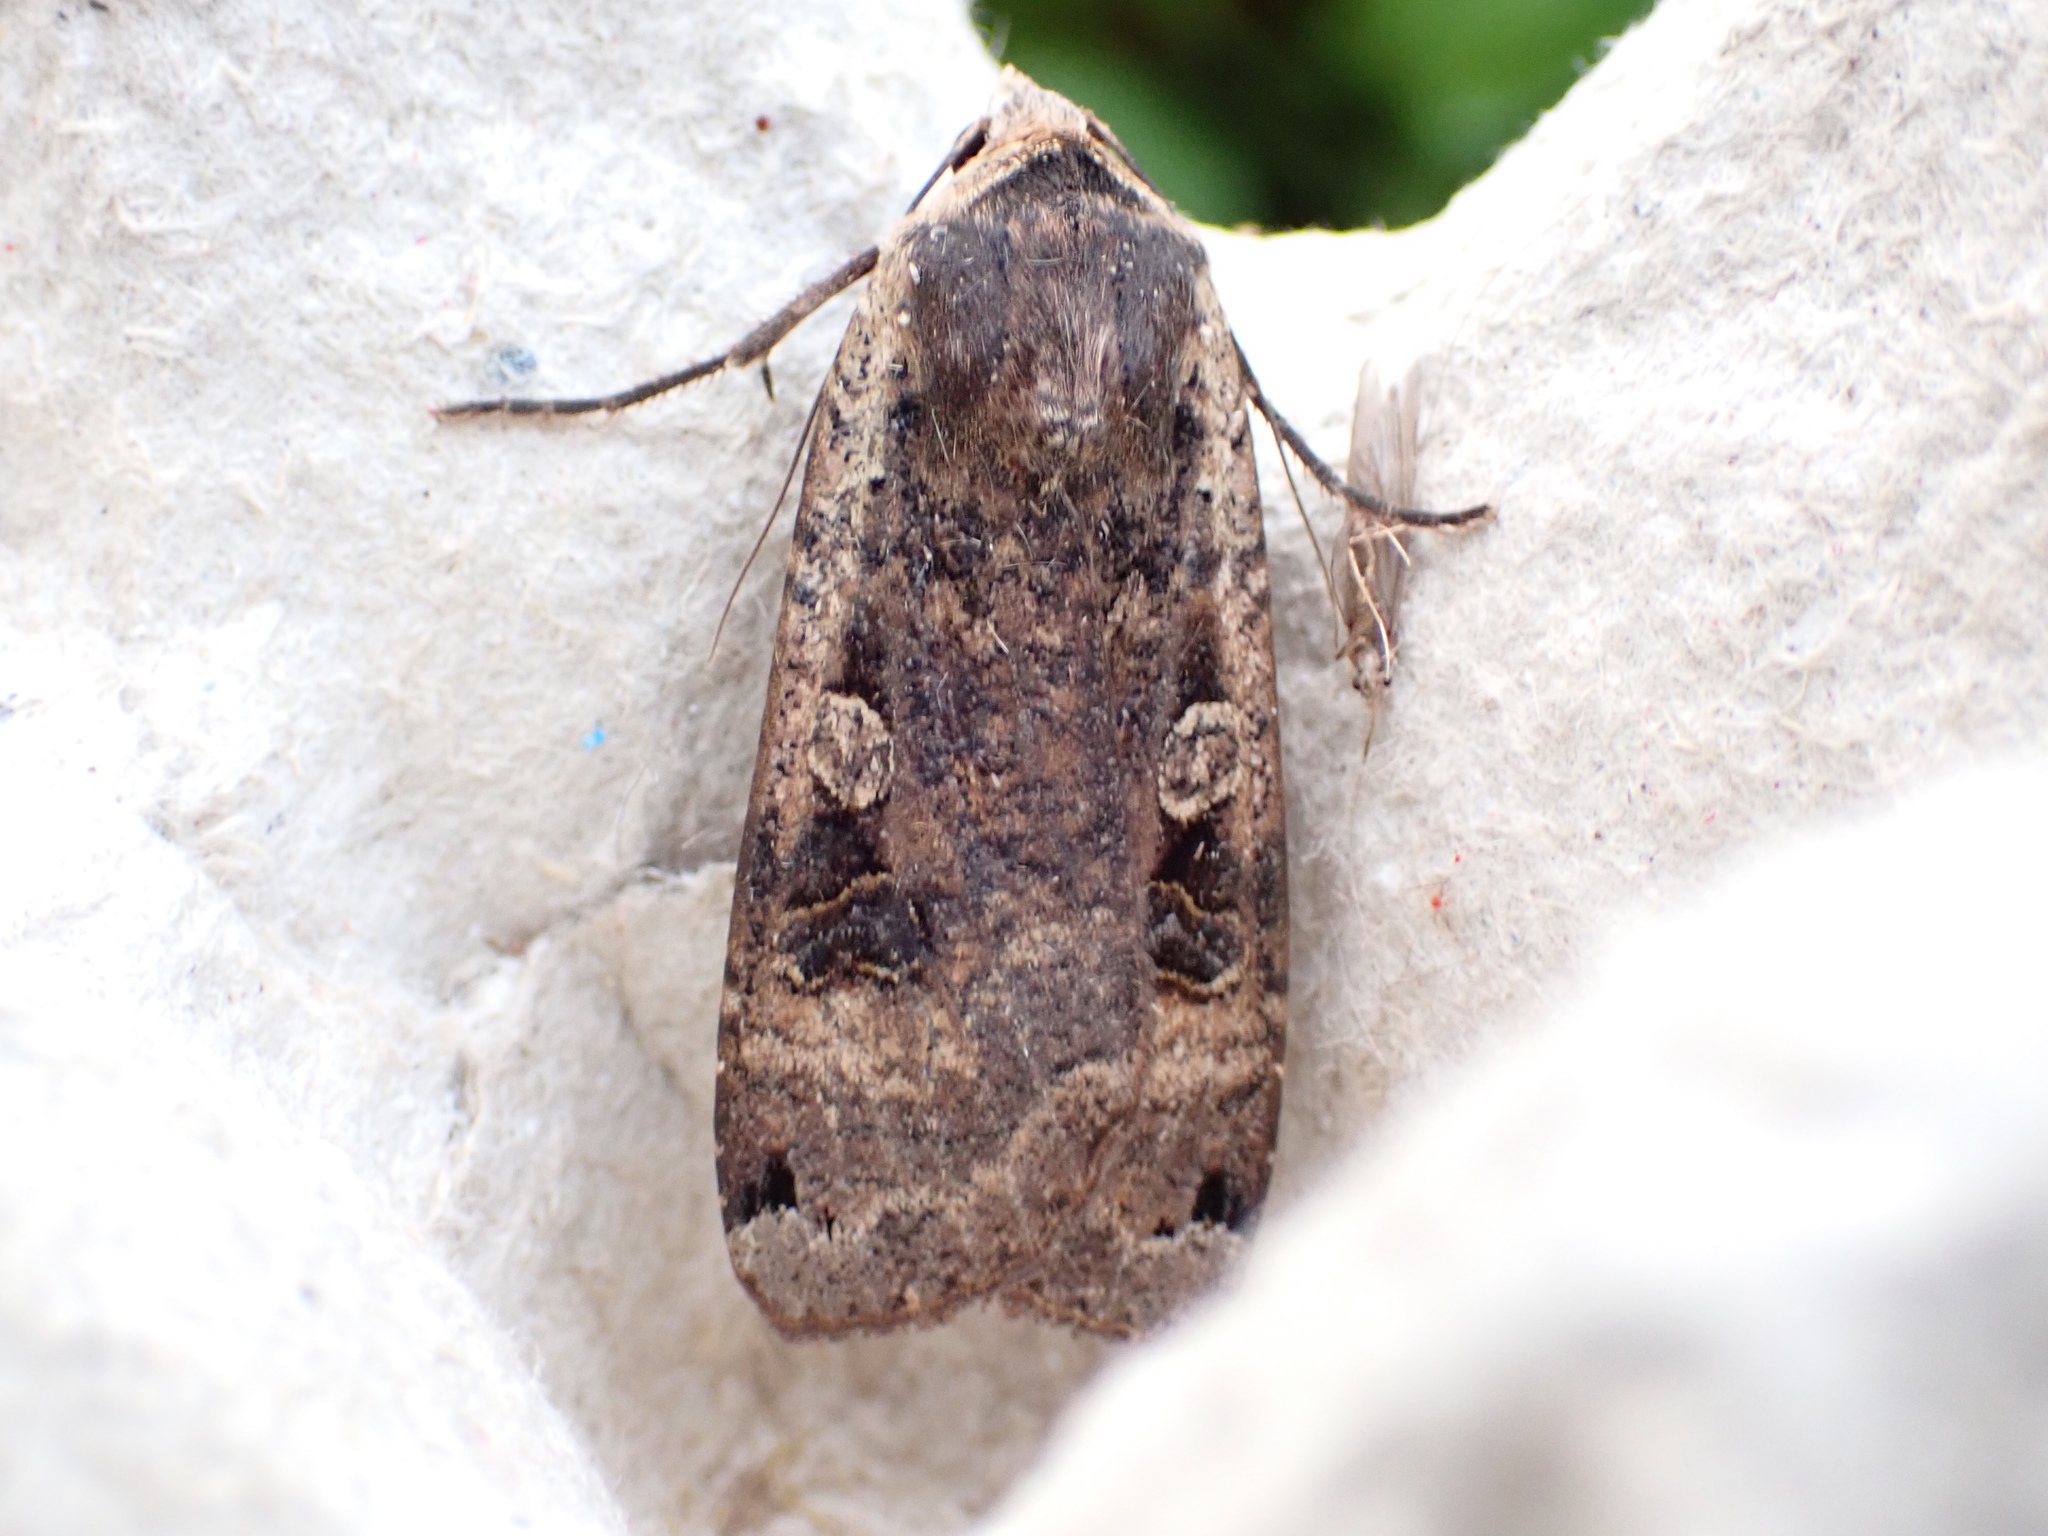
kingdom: Animalia
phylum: Arthropoda
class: Insecta
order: Lepidoptera
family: Noctuidae
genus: Noctua
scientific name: Noctua pronuba
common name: Large yellow underwing
